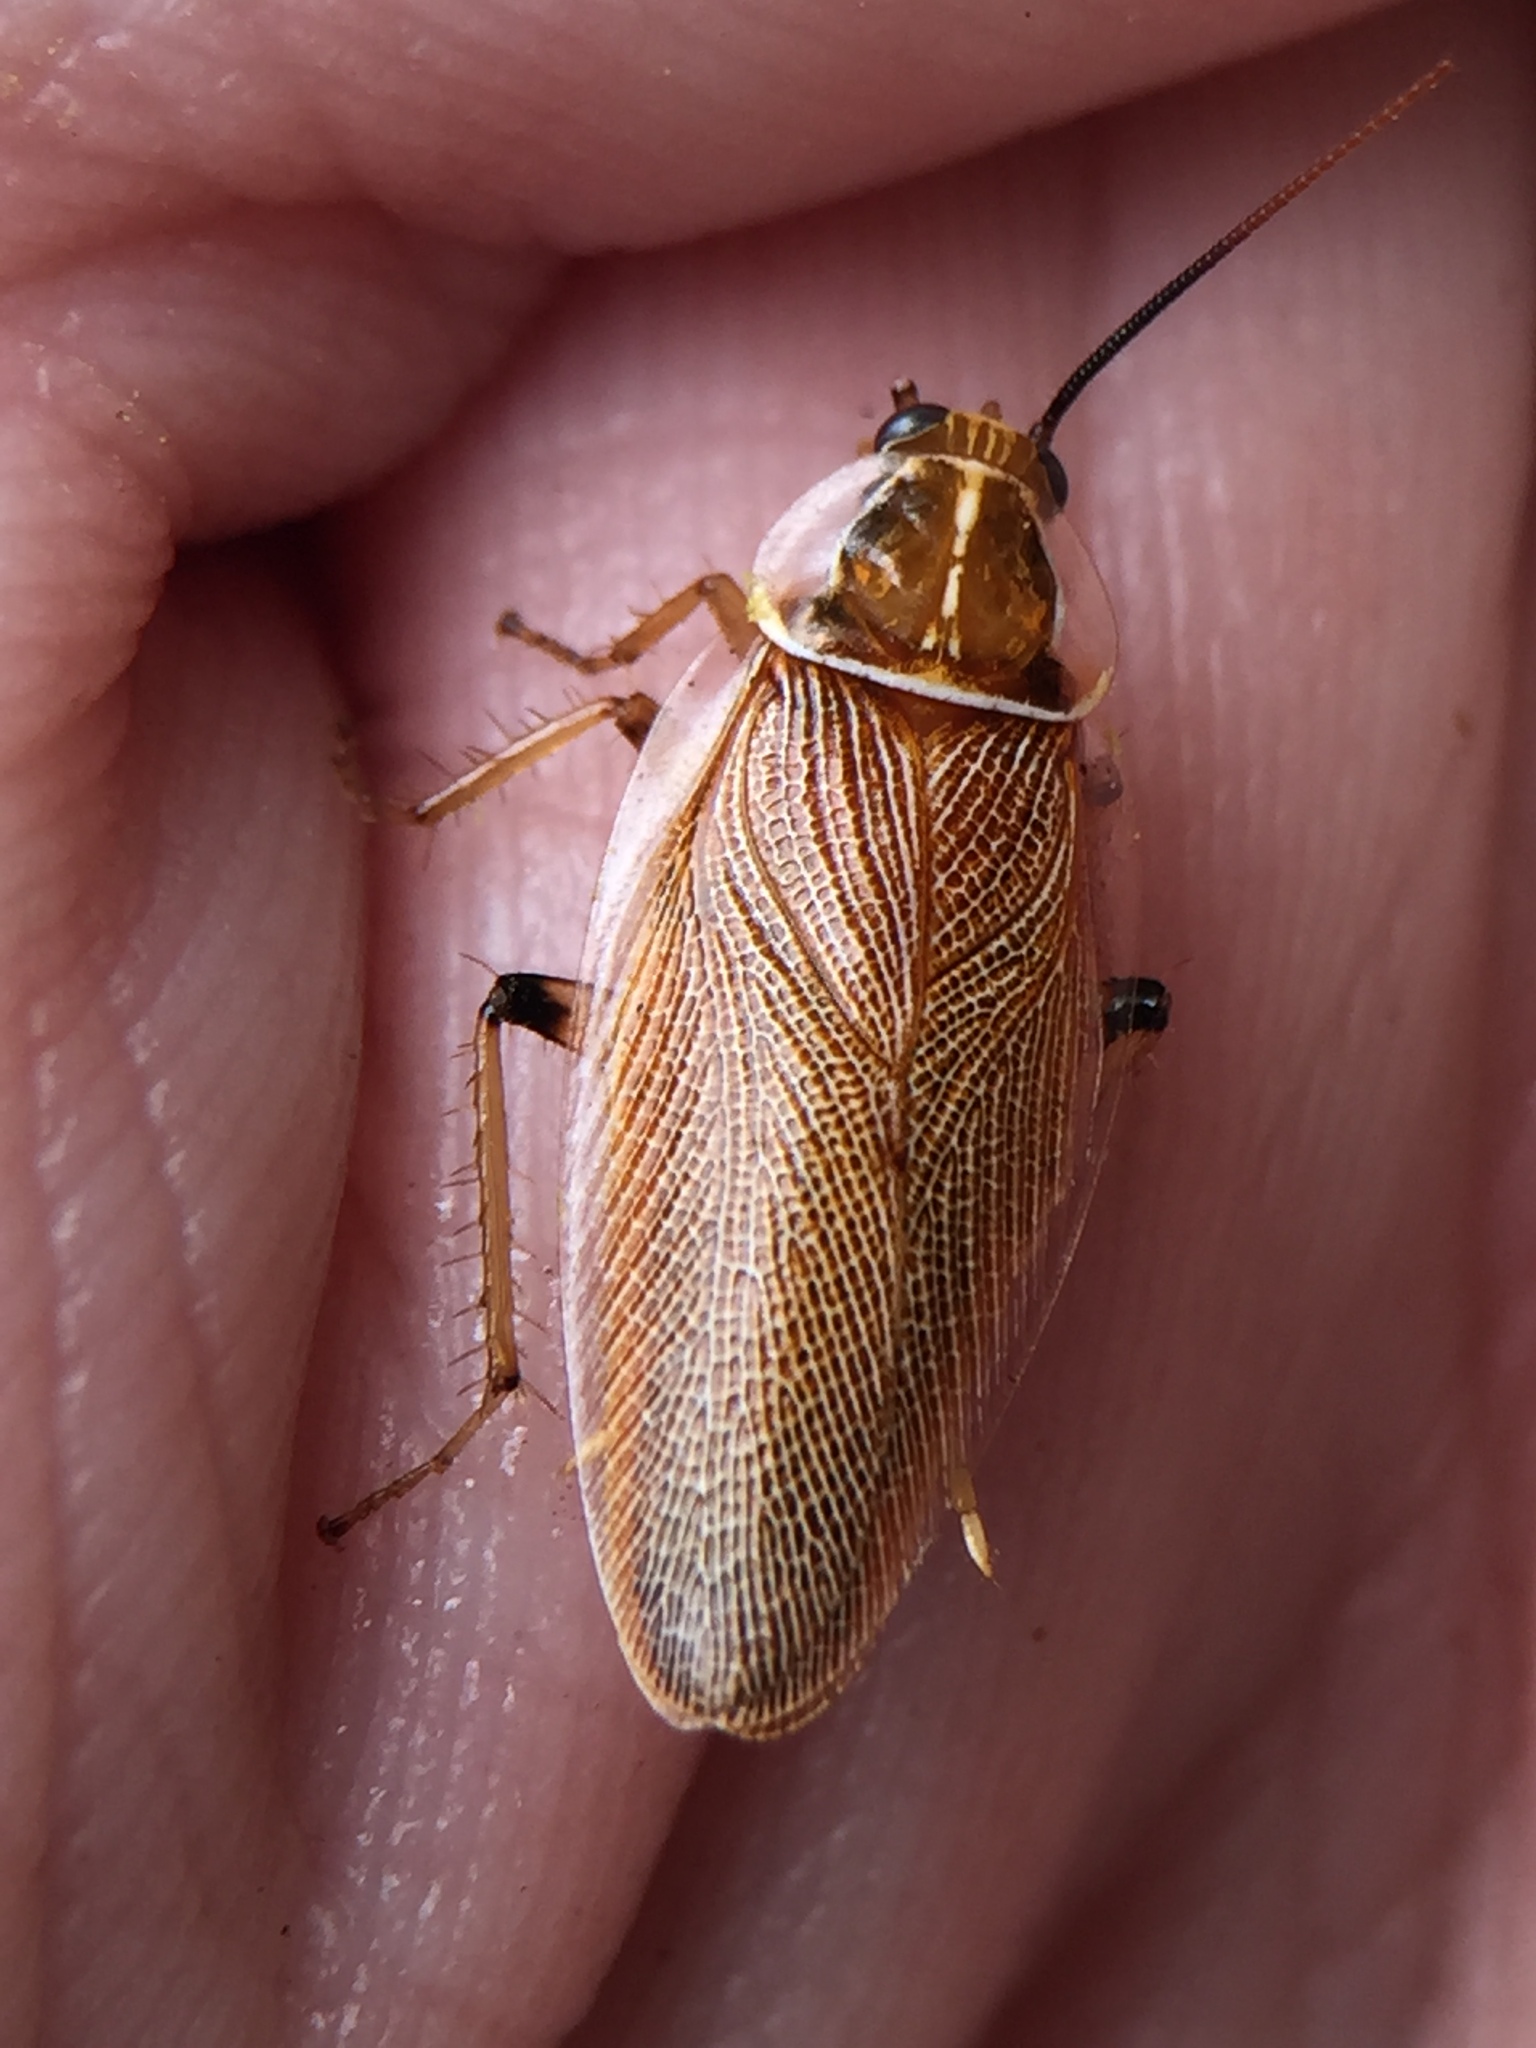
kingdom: Animalia
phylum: Arthropoda
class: Insecta
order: Blattodea
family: Ectobiidae
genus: Balta
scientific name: Balta bicolor
